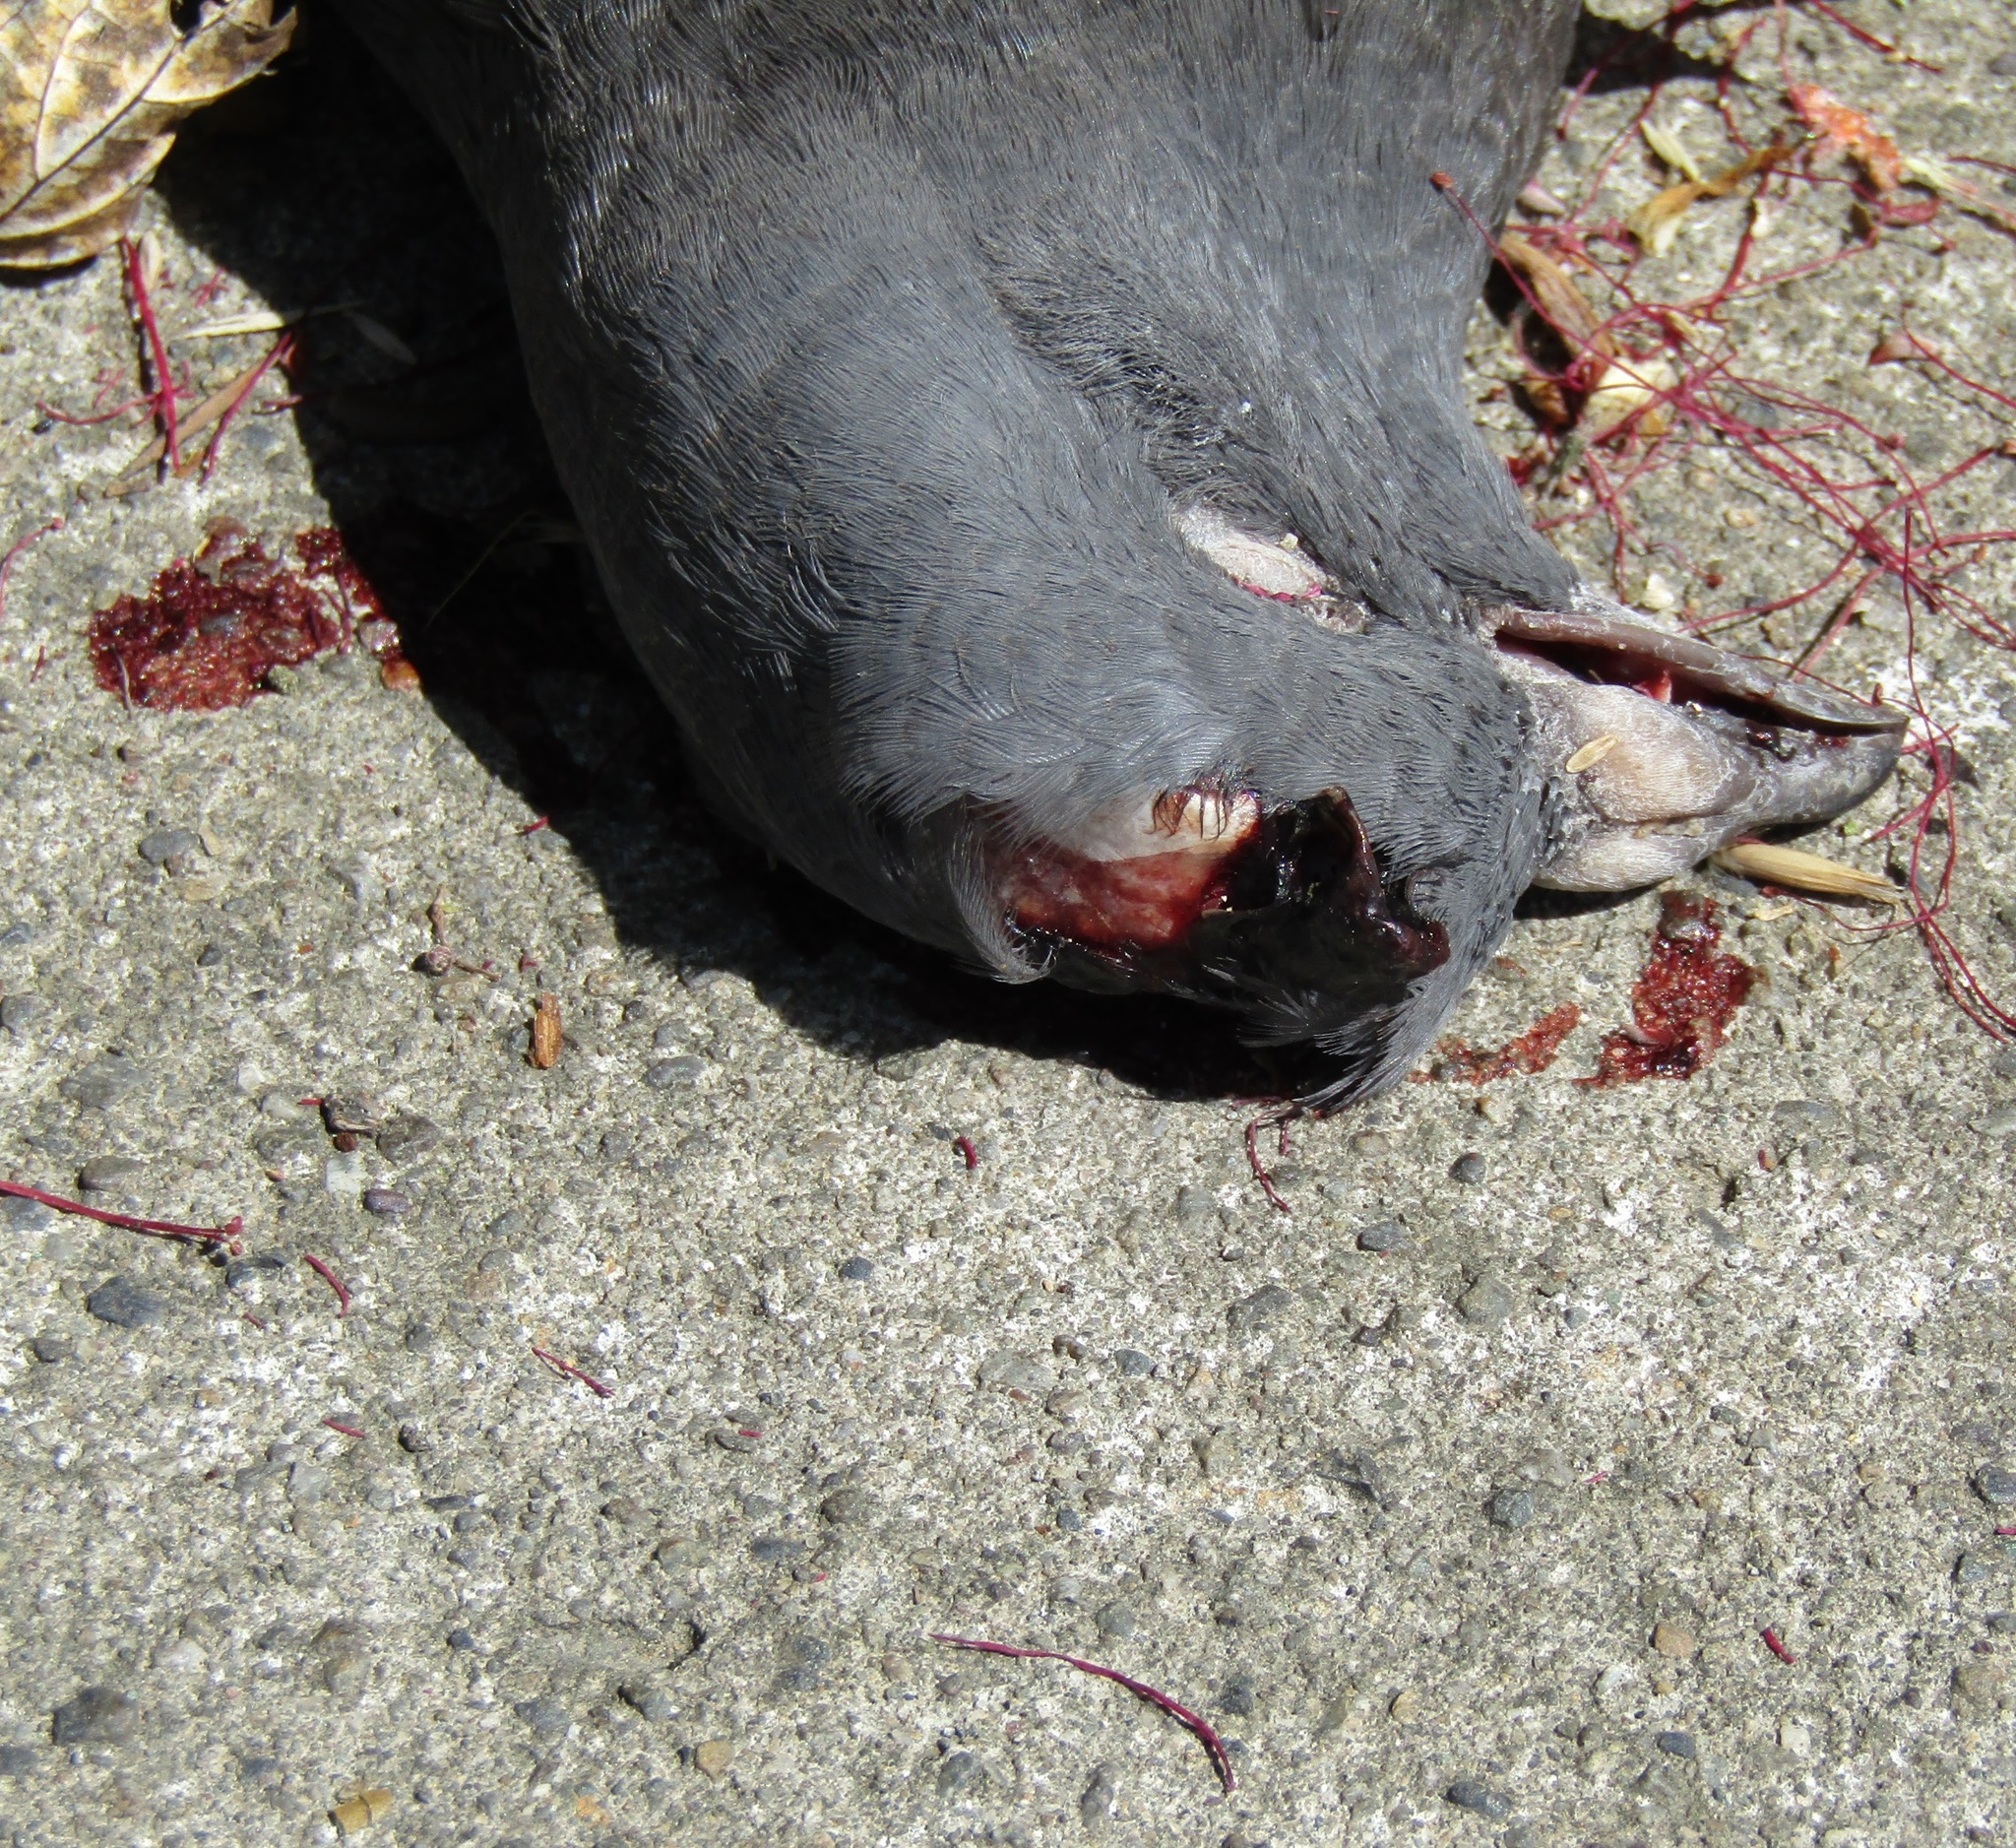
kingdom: Animalia
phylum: Chordata
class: Aves
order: Columbiformes
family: Columbidae
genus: Columba
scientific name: Columba livia
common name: Rock pigeon
